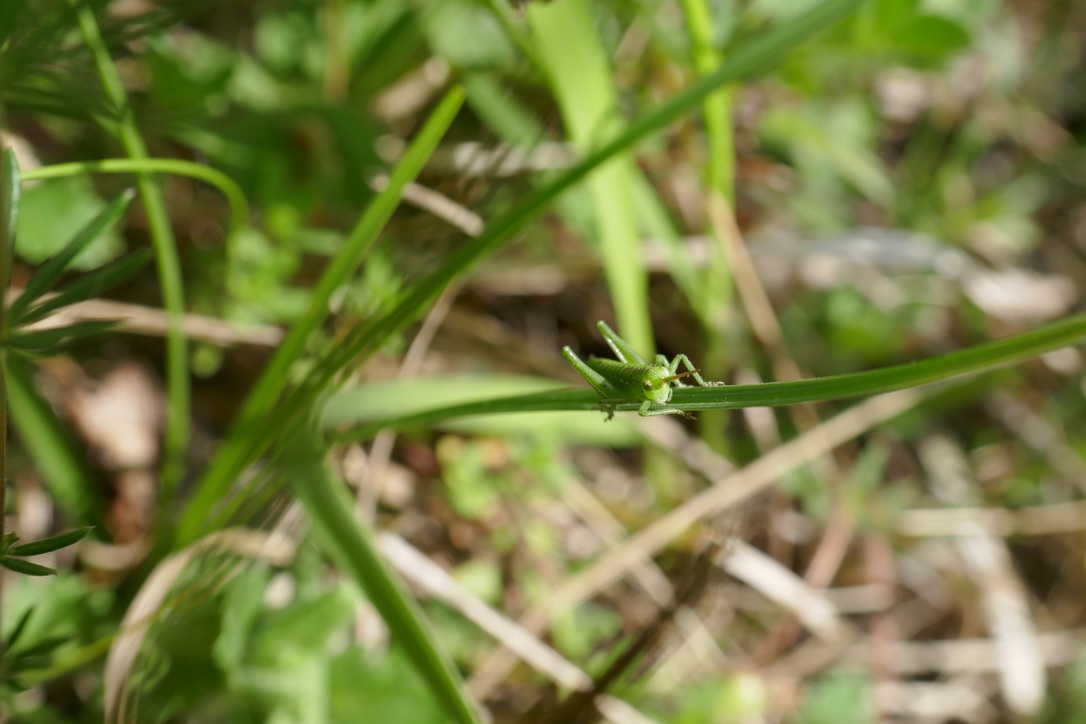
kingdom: Animalia
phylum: Arthropoda
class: Insecta
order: Orthoptera
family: Tettigoniidae
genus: Tettigonia
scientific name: Tettigonia viridissima
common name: Great green bush-cricket
